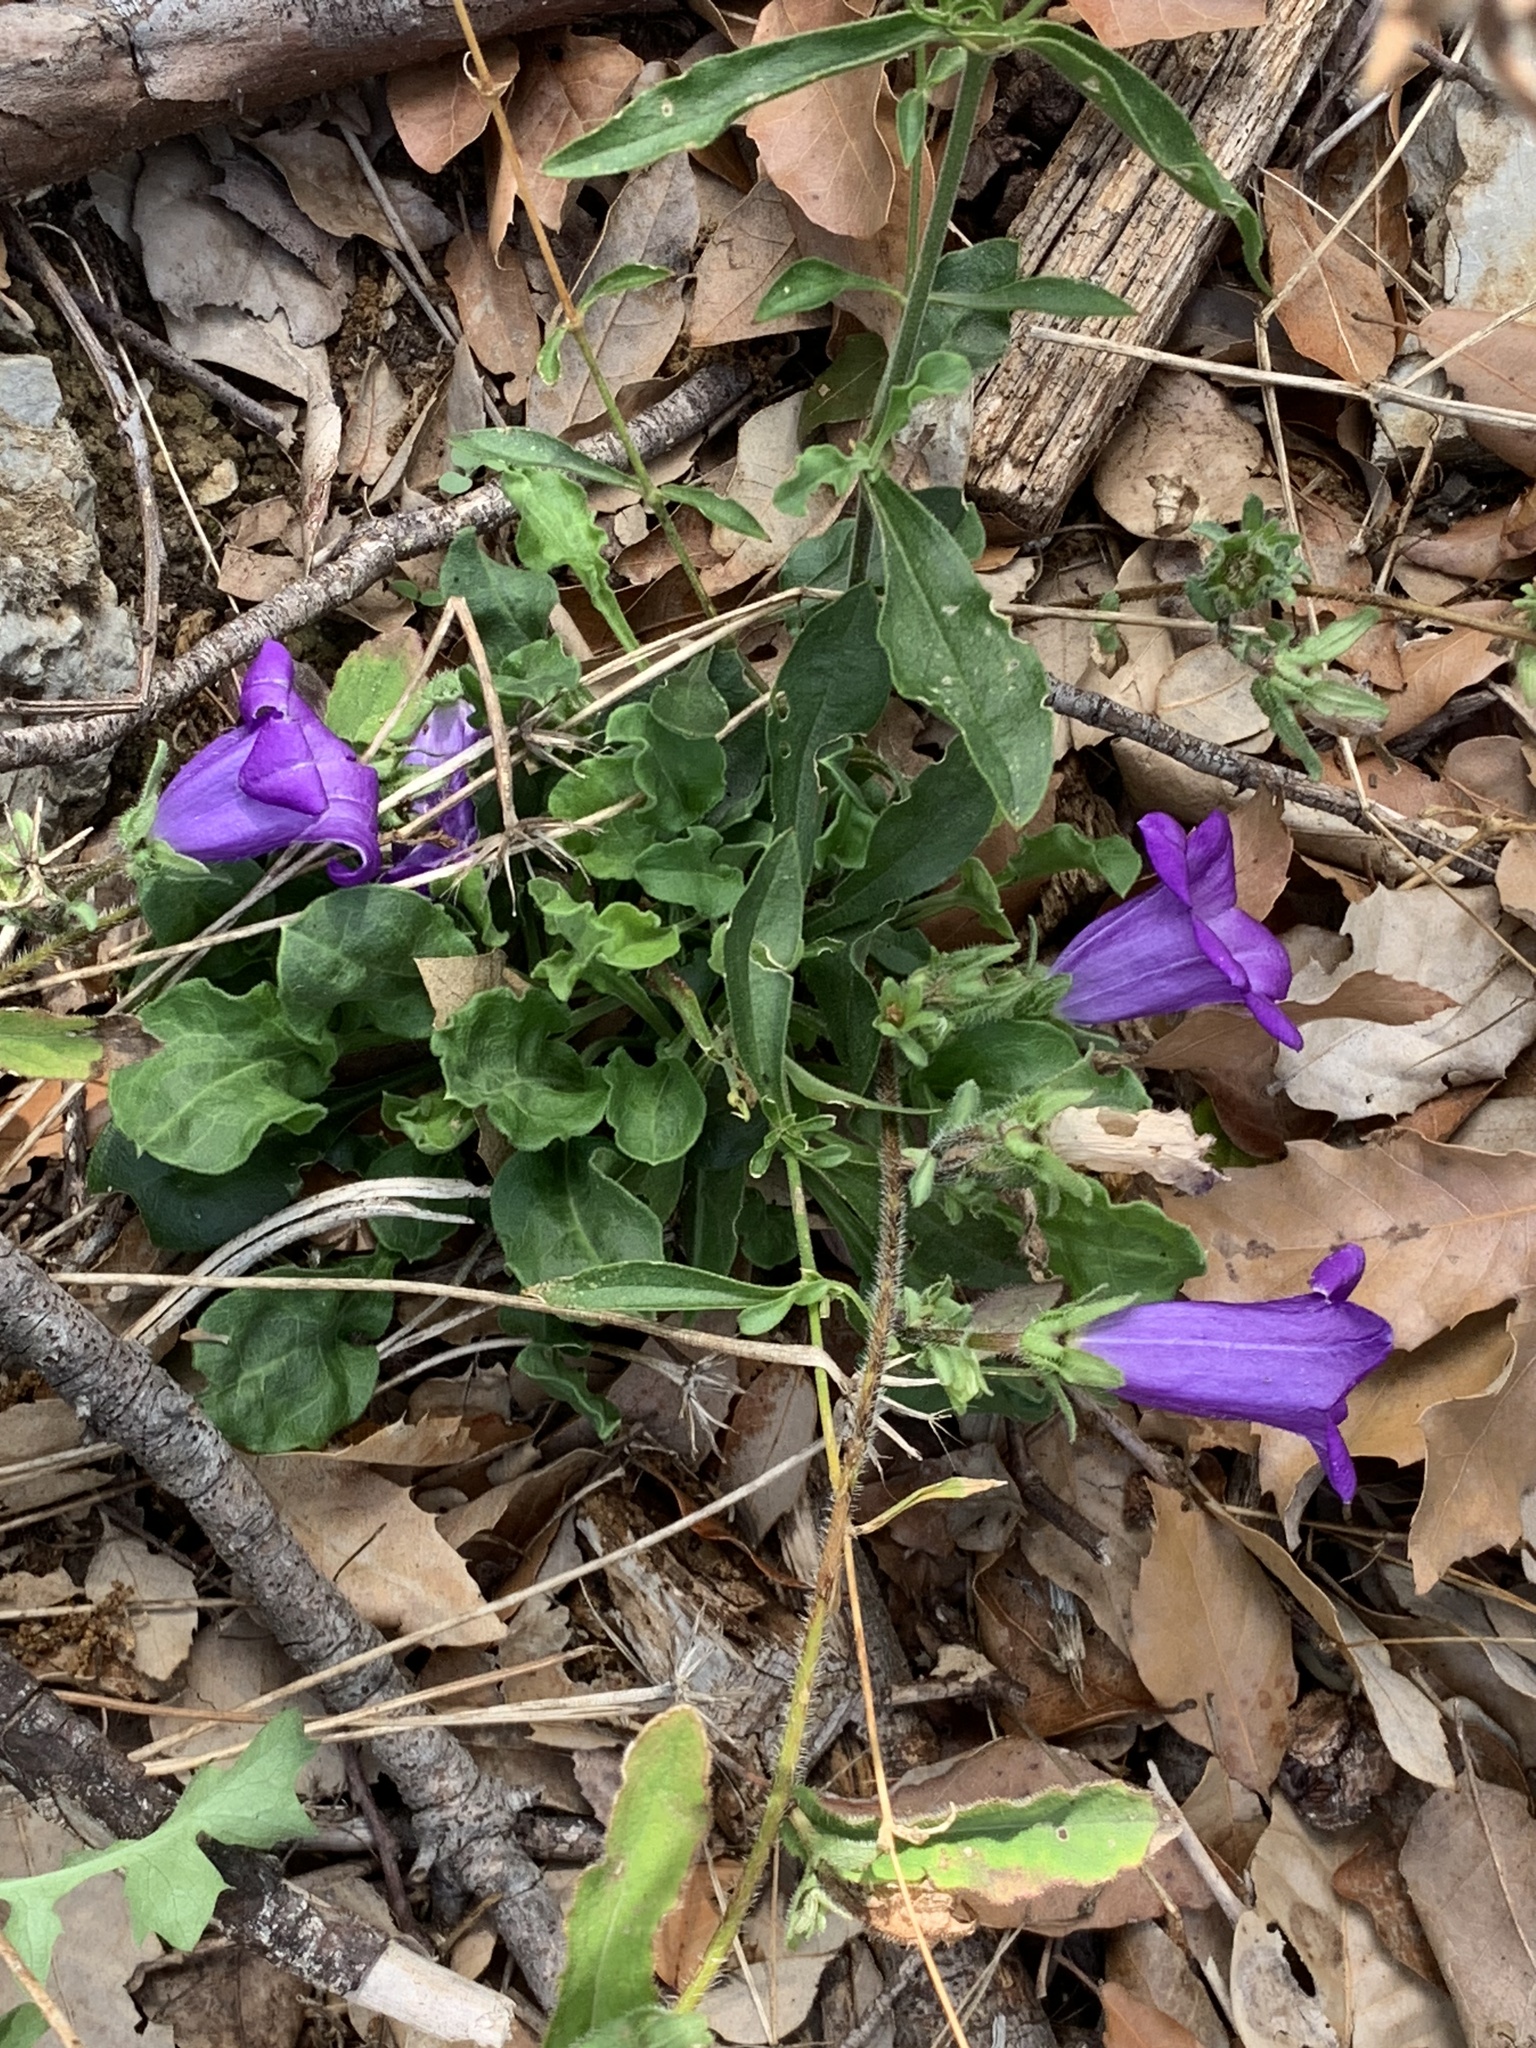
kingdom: Plantae
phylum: Tracheophyta
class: Magnoliopsida
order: Asterales
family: Campanulaceae
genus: Campanula
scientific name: Campanula medium
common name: Canterbury bells
